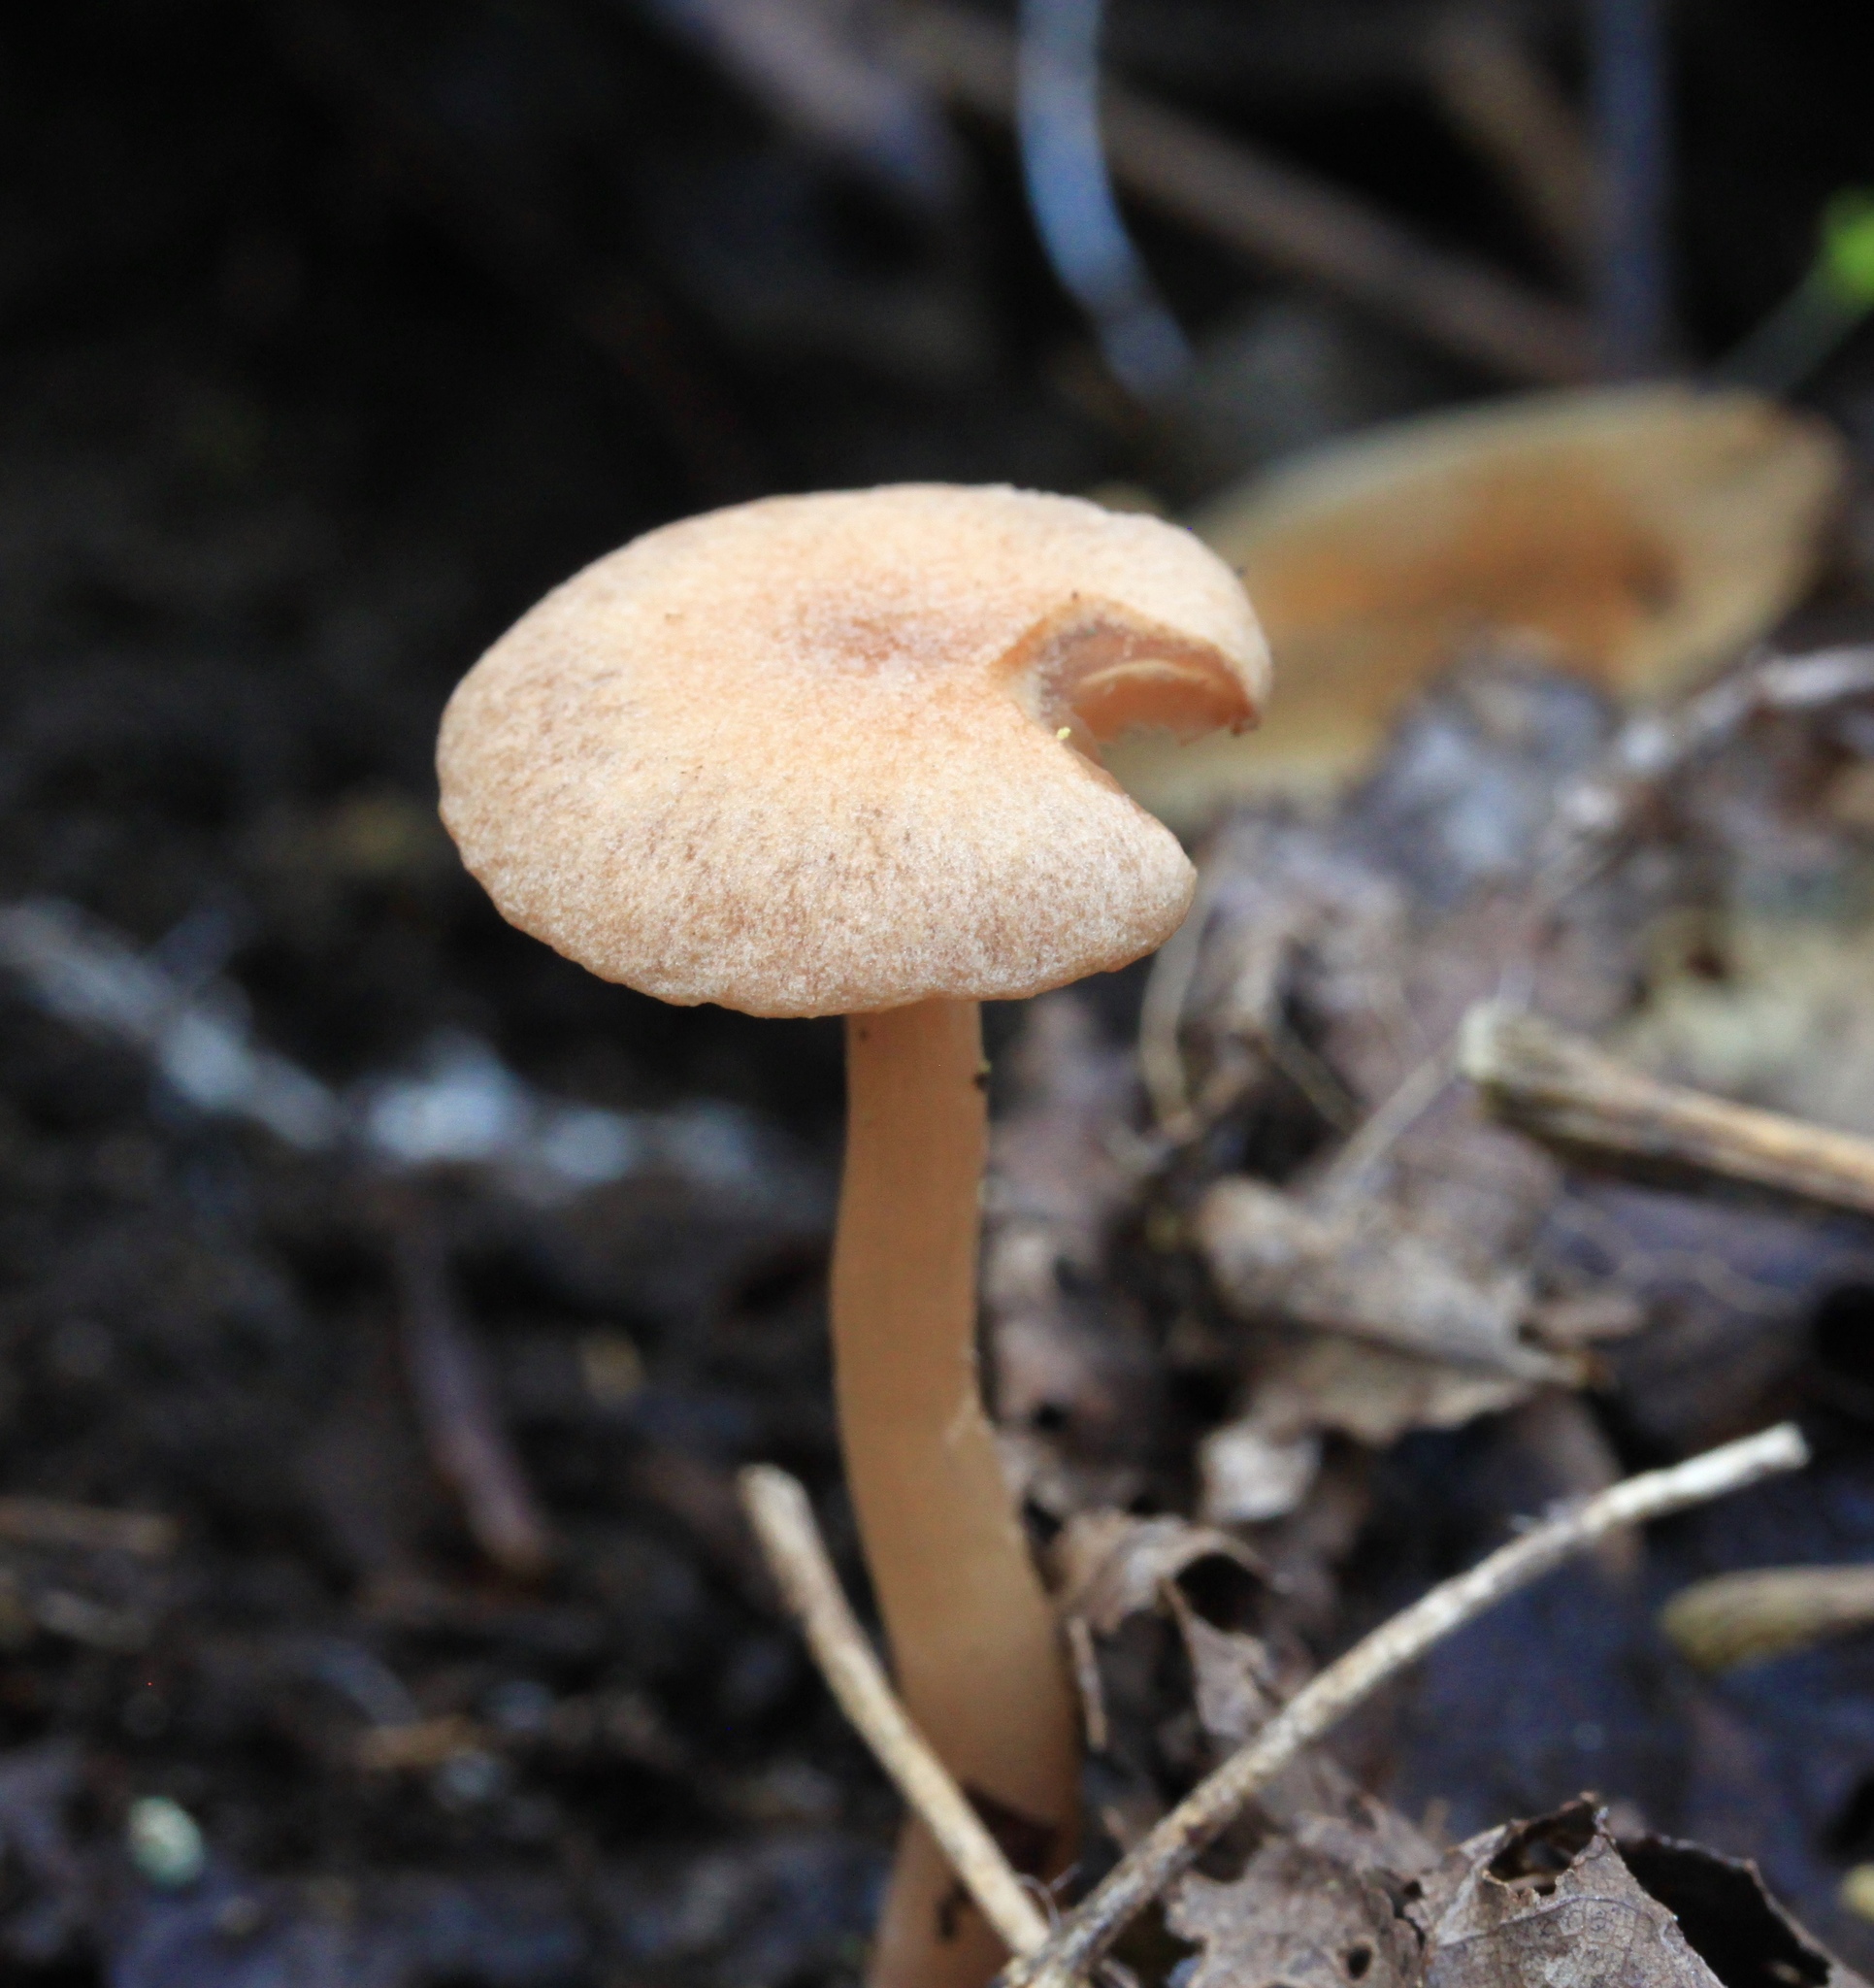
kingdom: Fungi
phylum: Basidiomycota
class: Agaricomycetes
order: Agaricales
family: Tubariaceae
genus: Tubaria
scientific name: Tubaria furfuracea
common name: Scurfy twiglet
